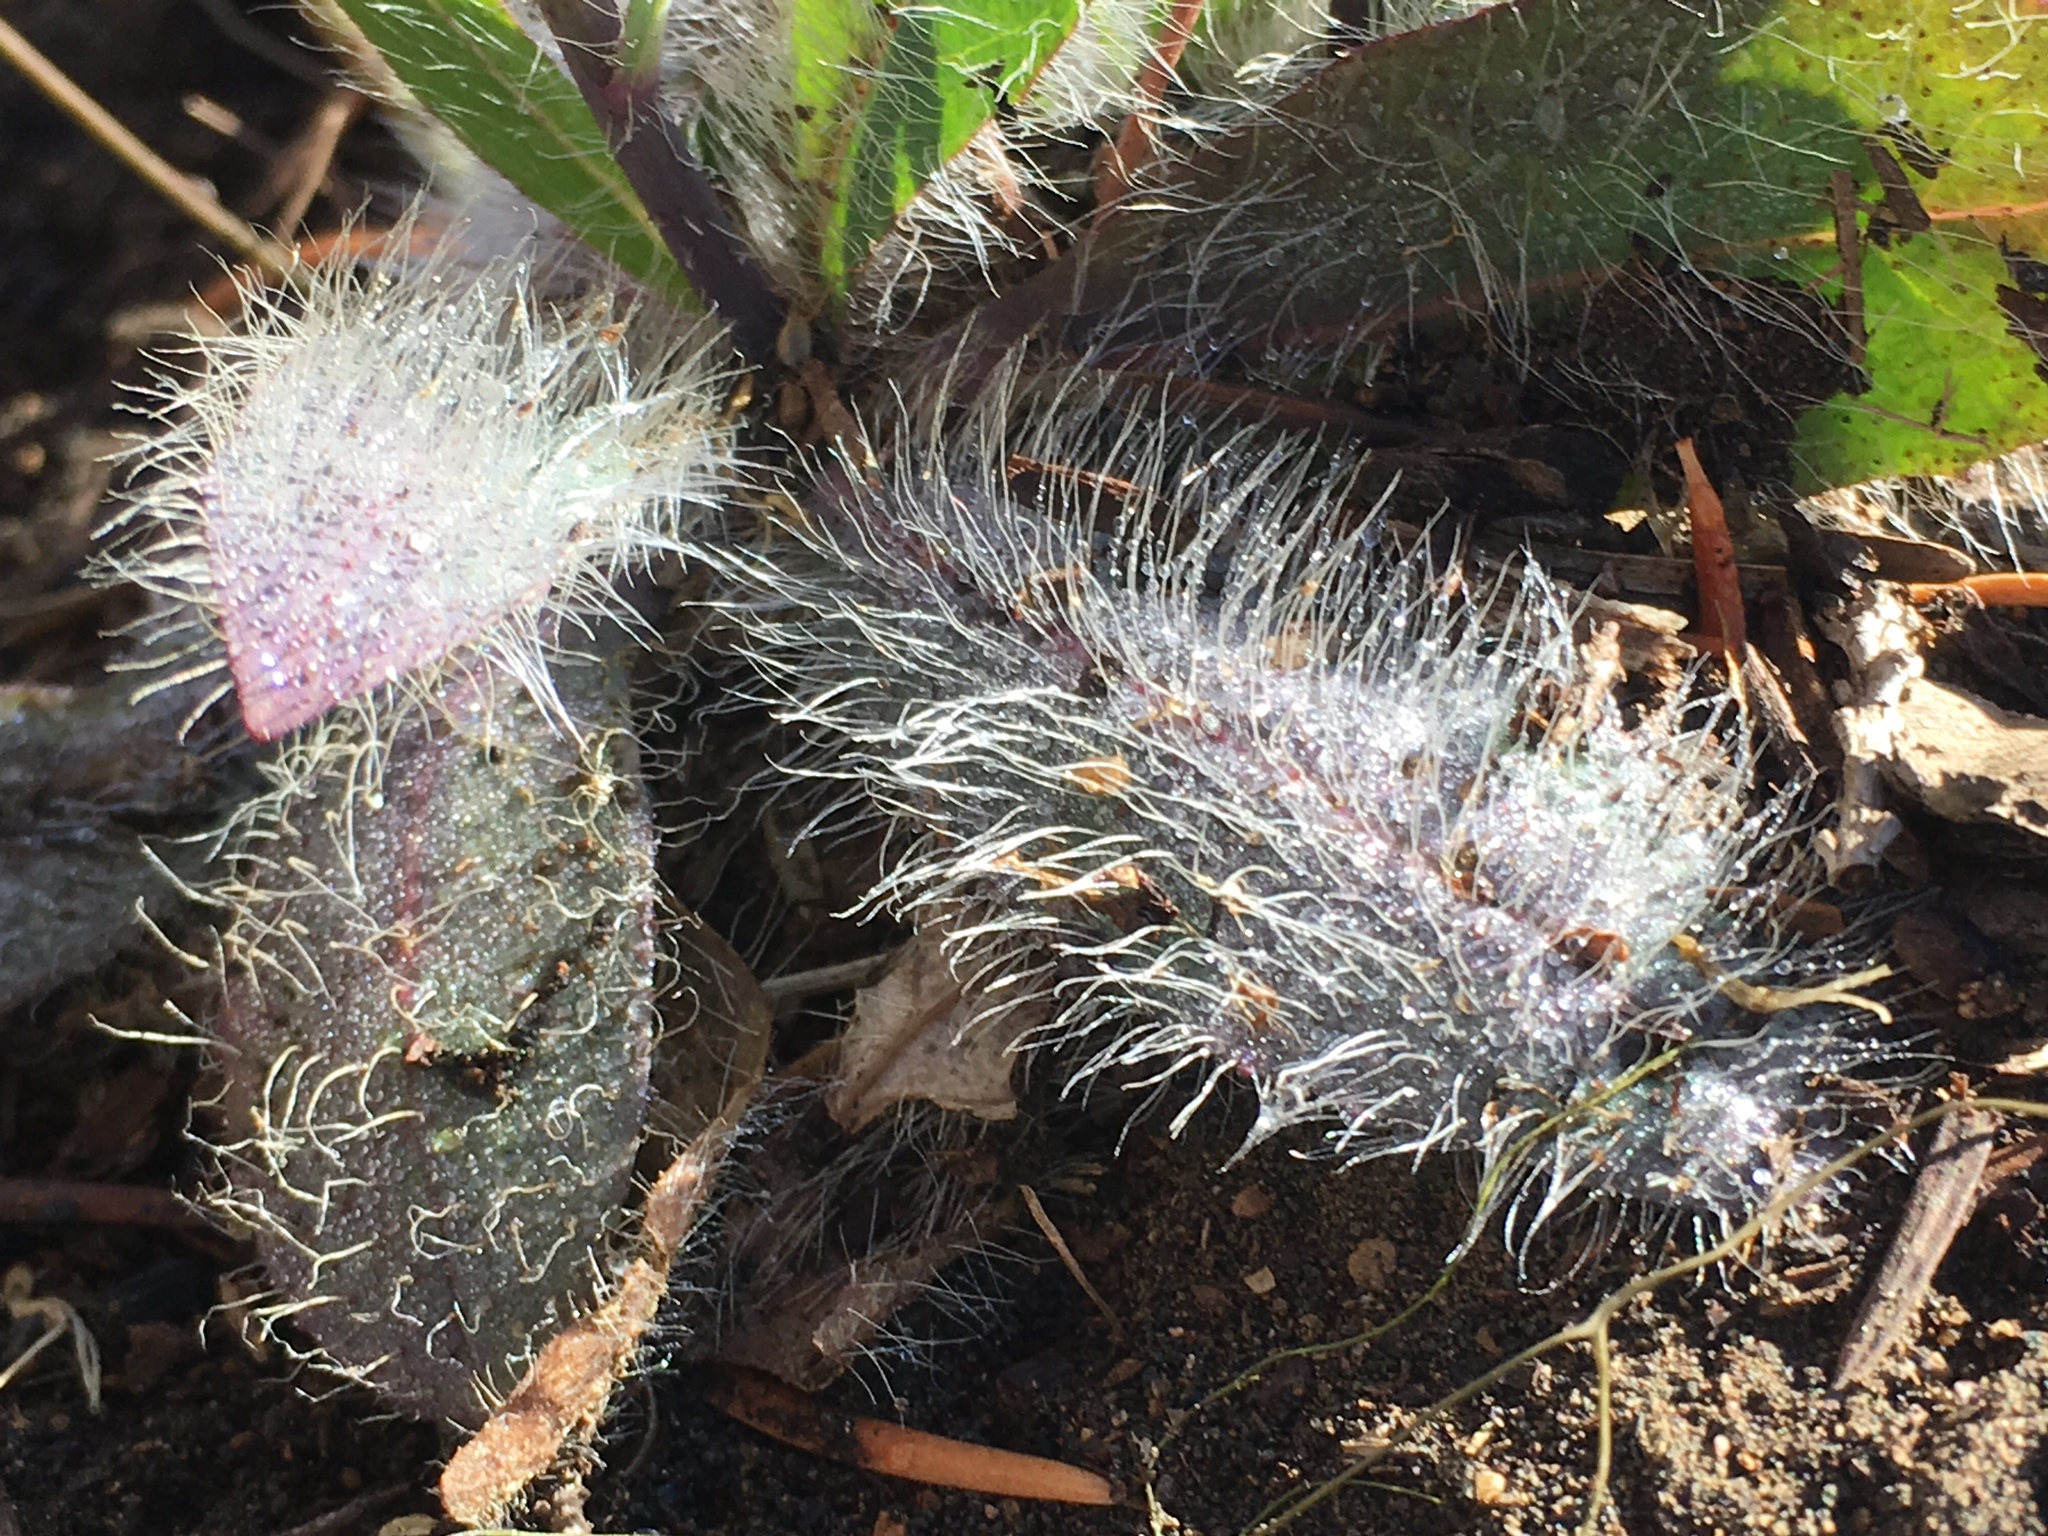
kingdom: Plantae
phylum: Tracheophyta
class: Magnoliopsida
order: Asterales
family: Asteraceae
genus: Hieracium
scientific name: Hieracium horridum
